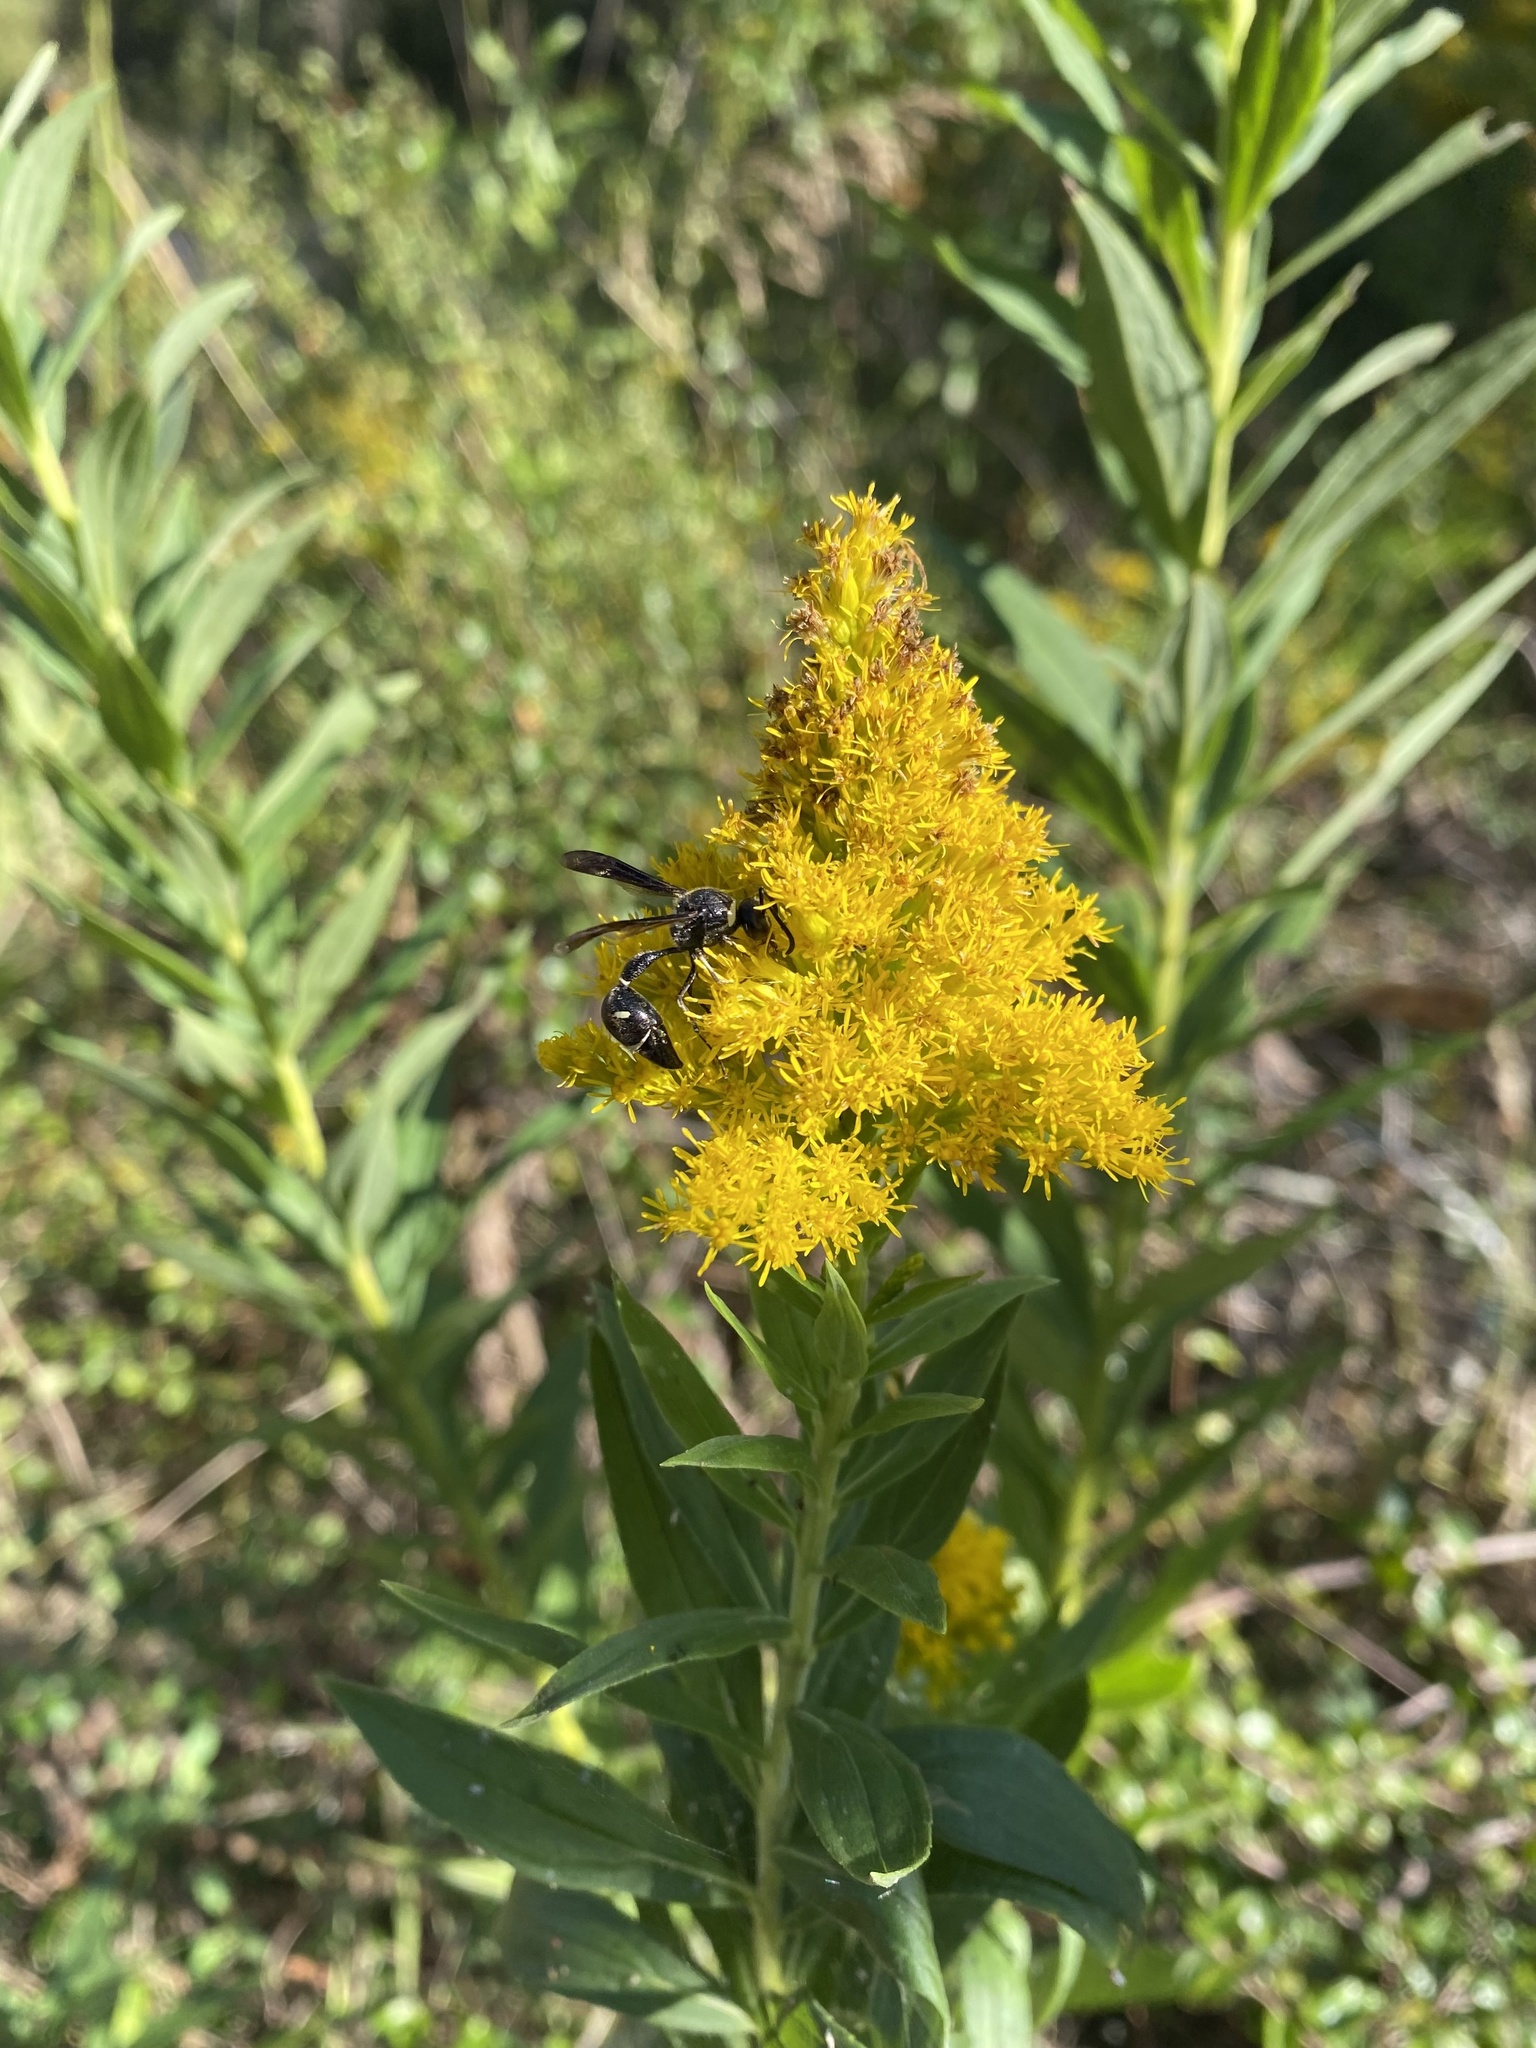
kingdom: Animalia
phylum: Arthropoda
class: Insecta
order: Hymenoptera
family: Vespidae
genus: Eumenes
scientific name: Eumenes fraternus
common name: Fraternal potter wasp
